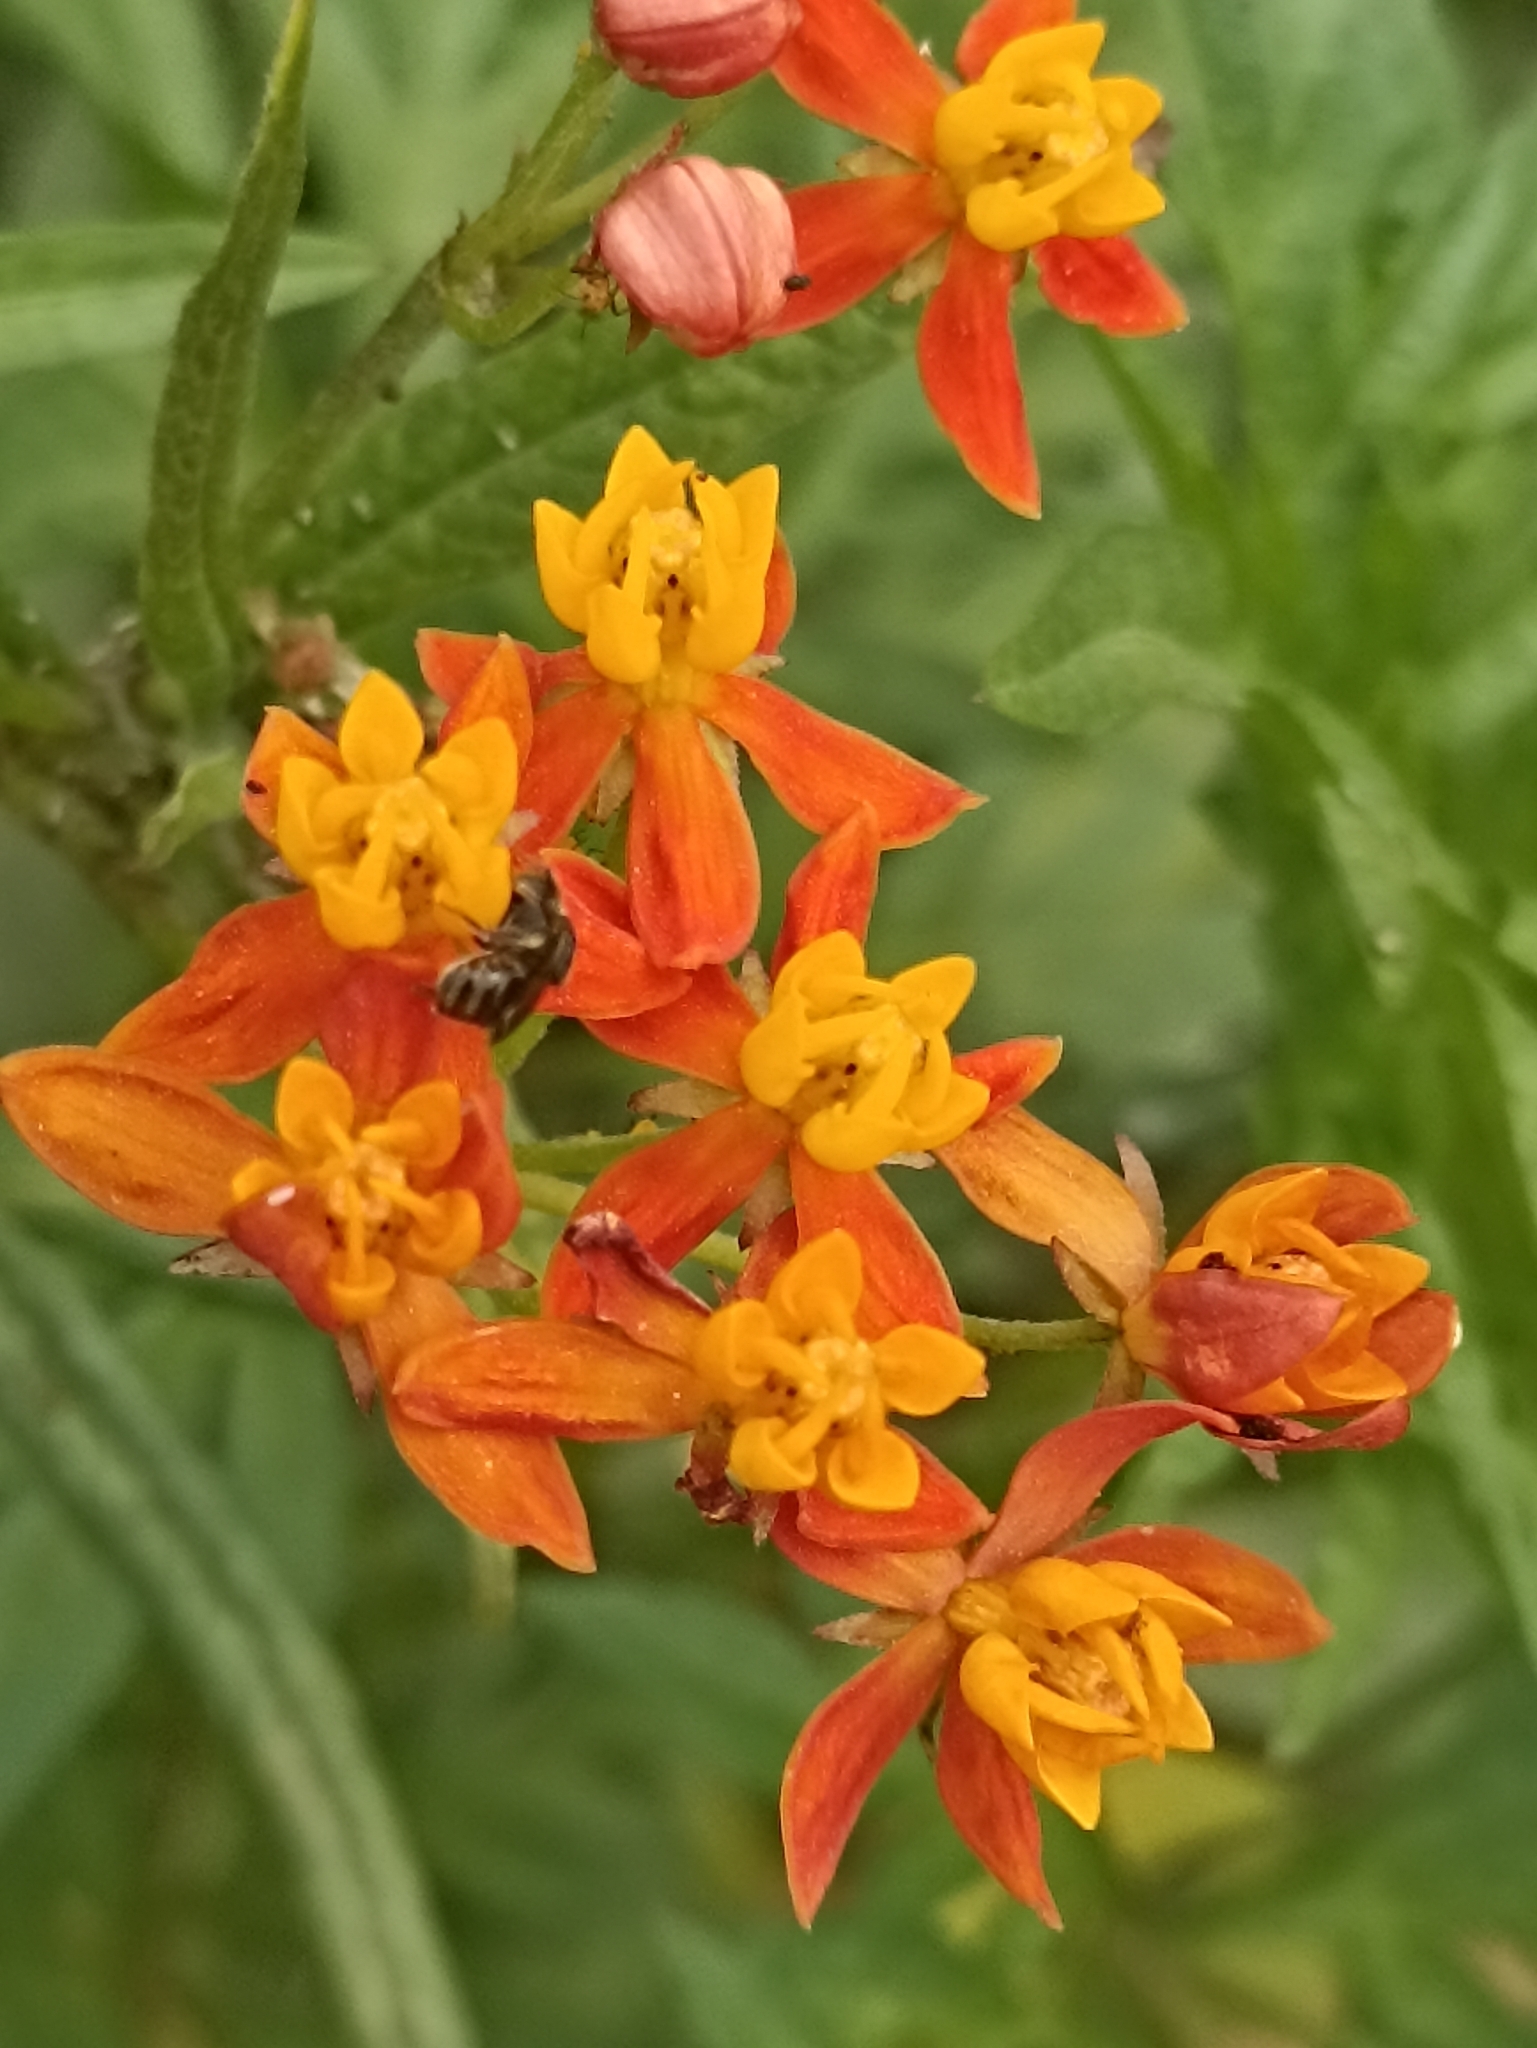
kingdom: Animalia
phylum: Arthropoda
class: Insecta
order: Hymenoptera
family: Apidae
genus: Nannotrigona
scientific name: Nannotrigona testaceicornis
